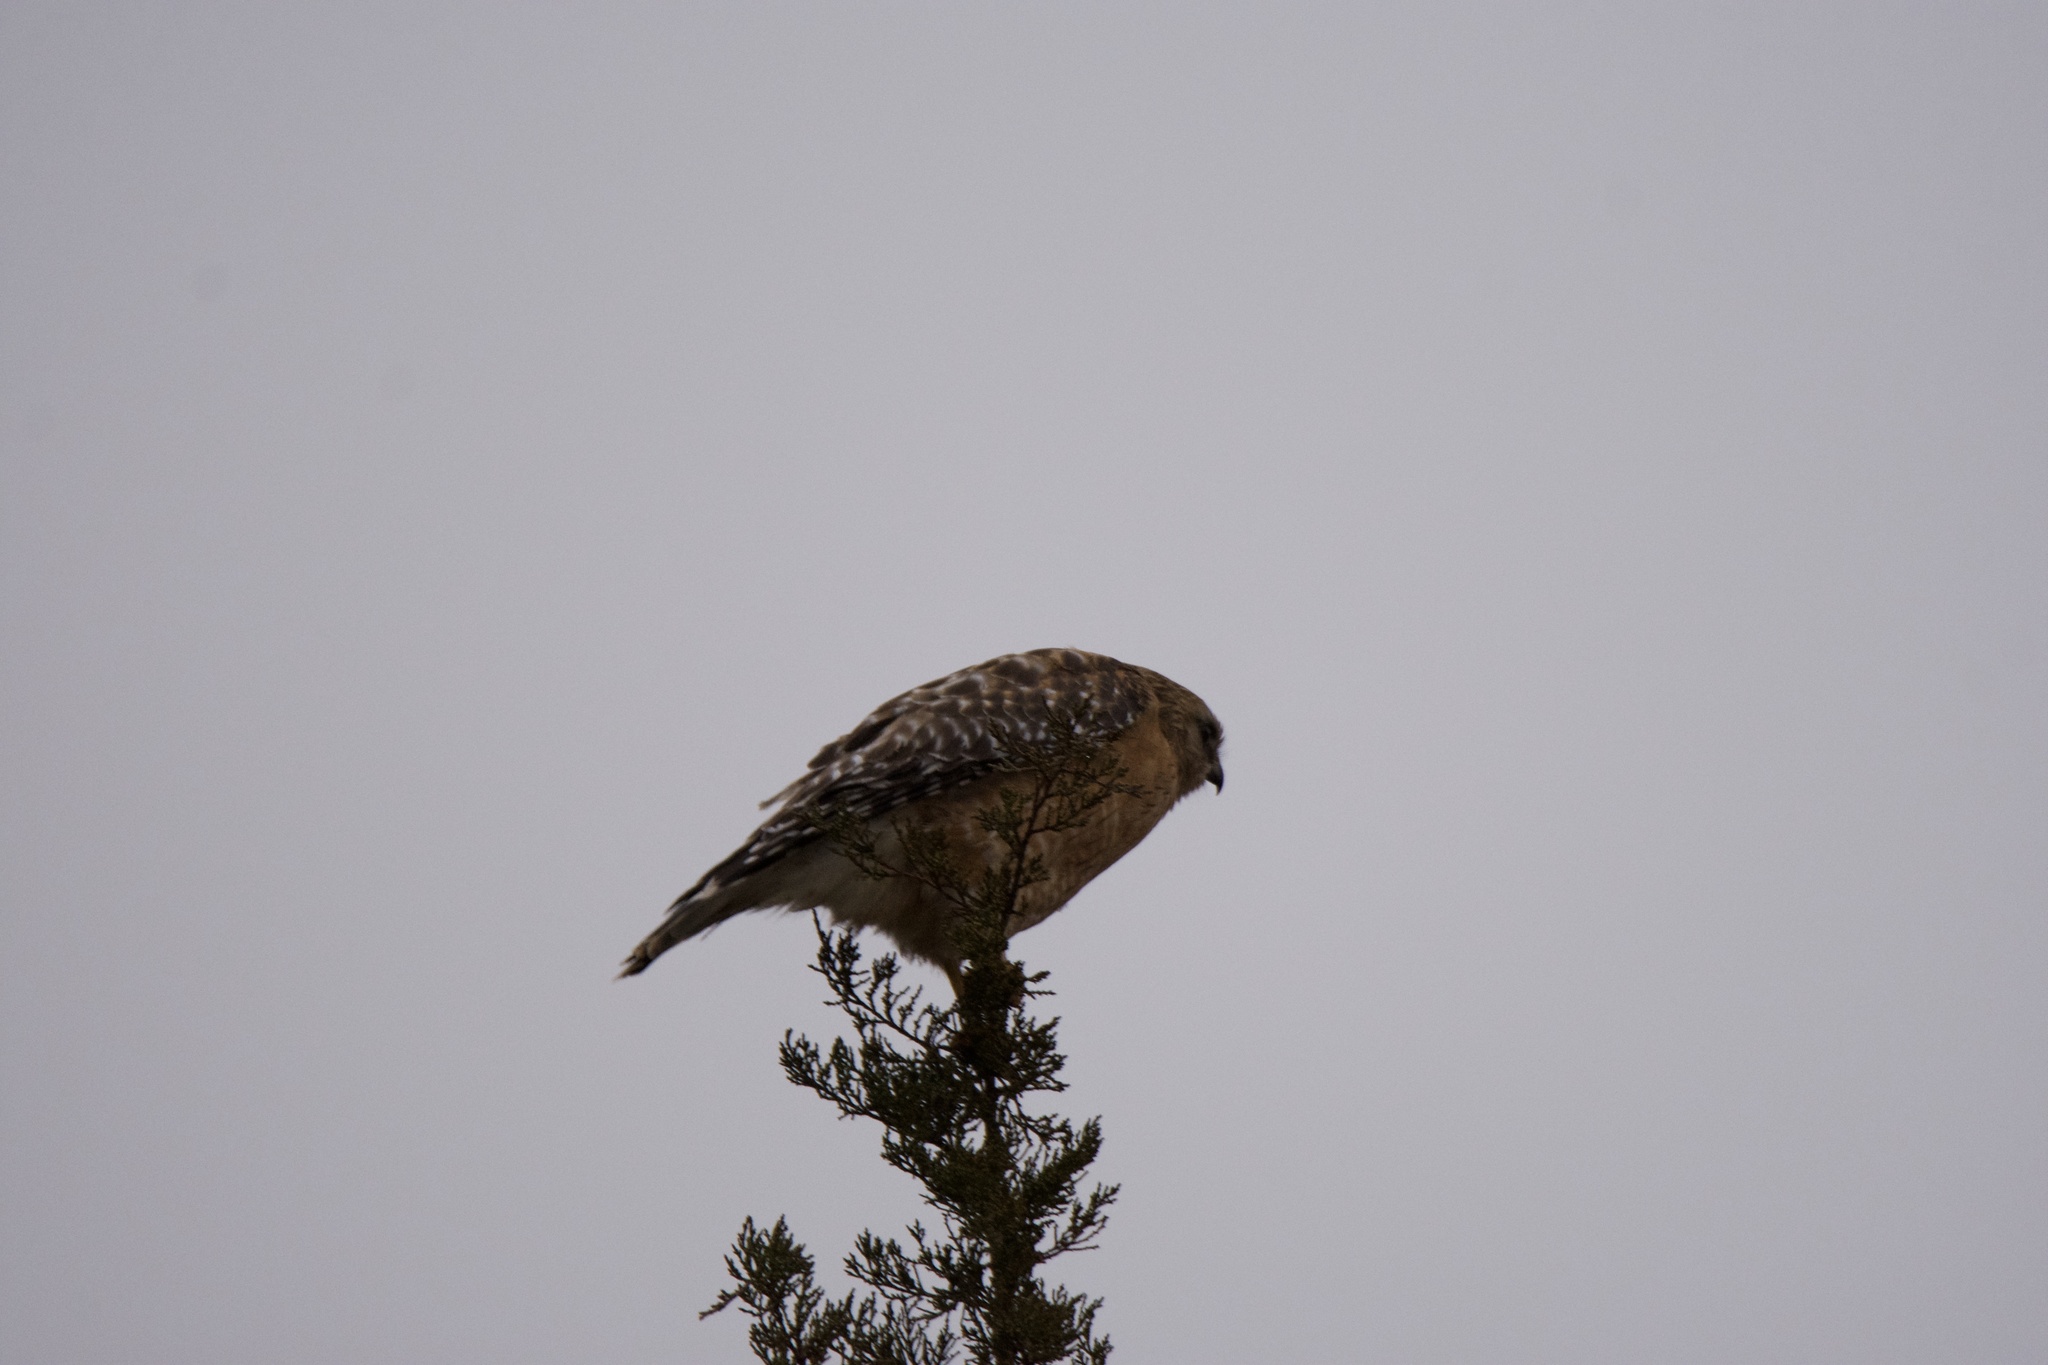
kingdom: Animalia
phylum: Chordata
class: Aves
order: Accipitriformes
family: Accipitridae
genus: Buteo
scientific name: Buteo lineatus
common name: Red-shouldered hawk
